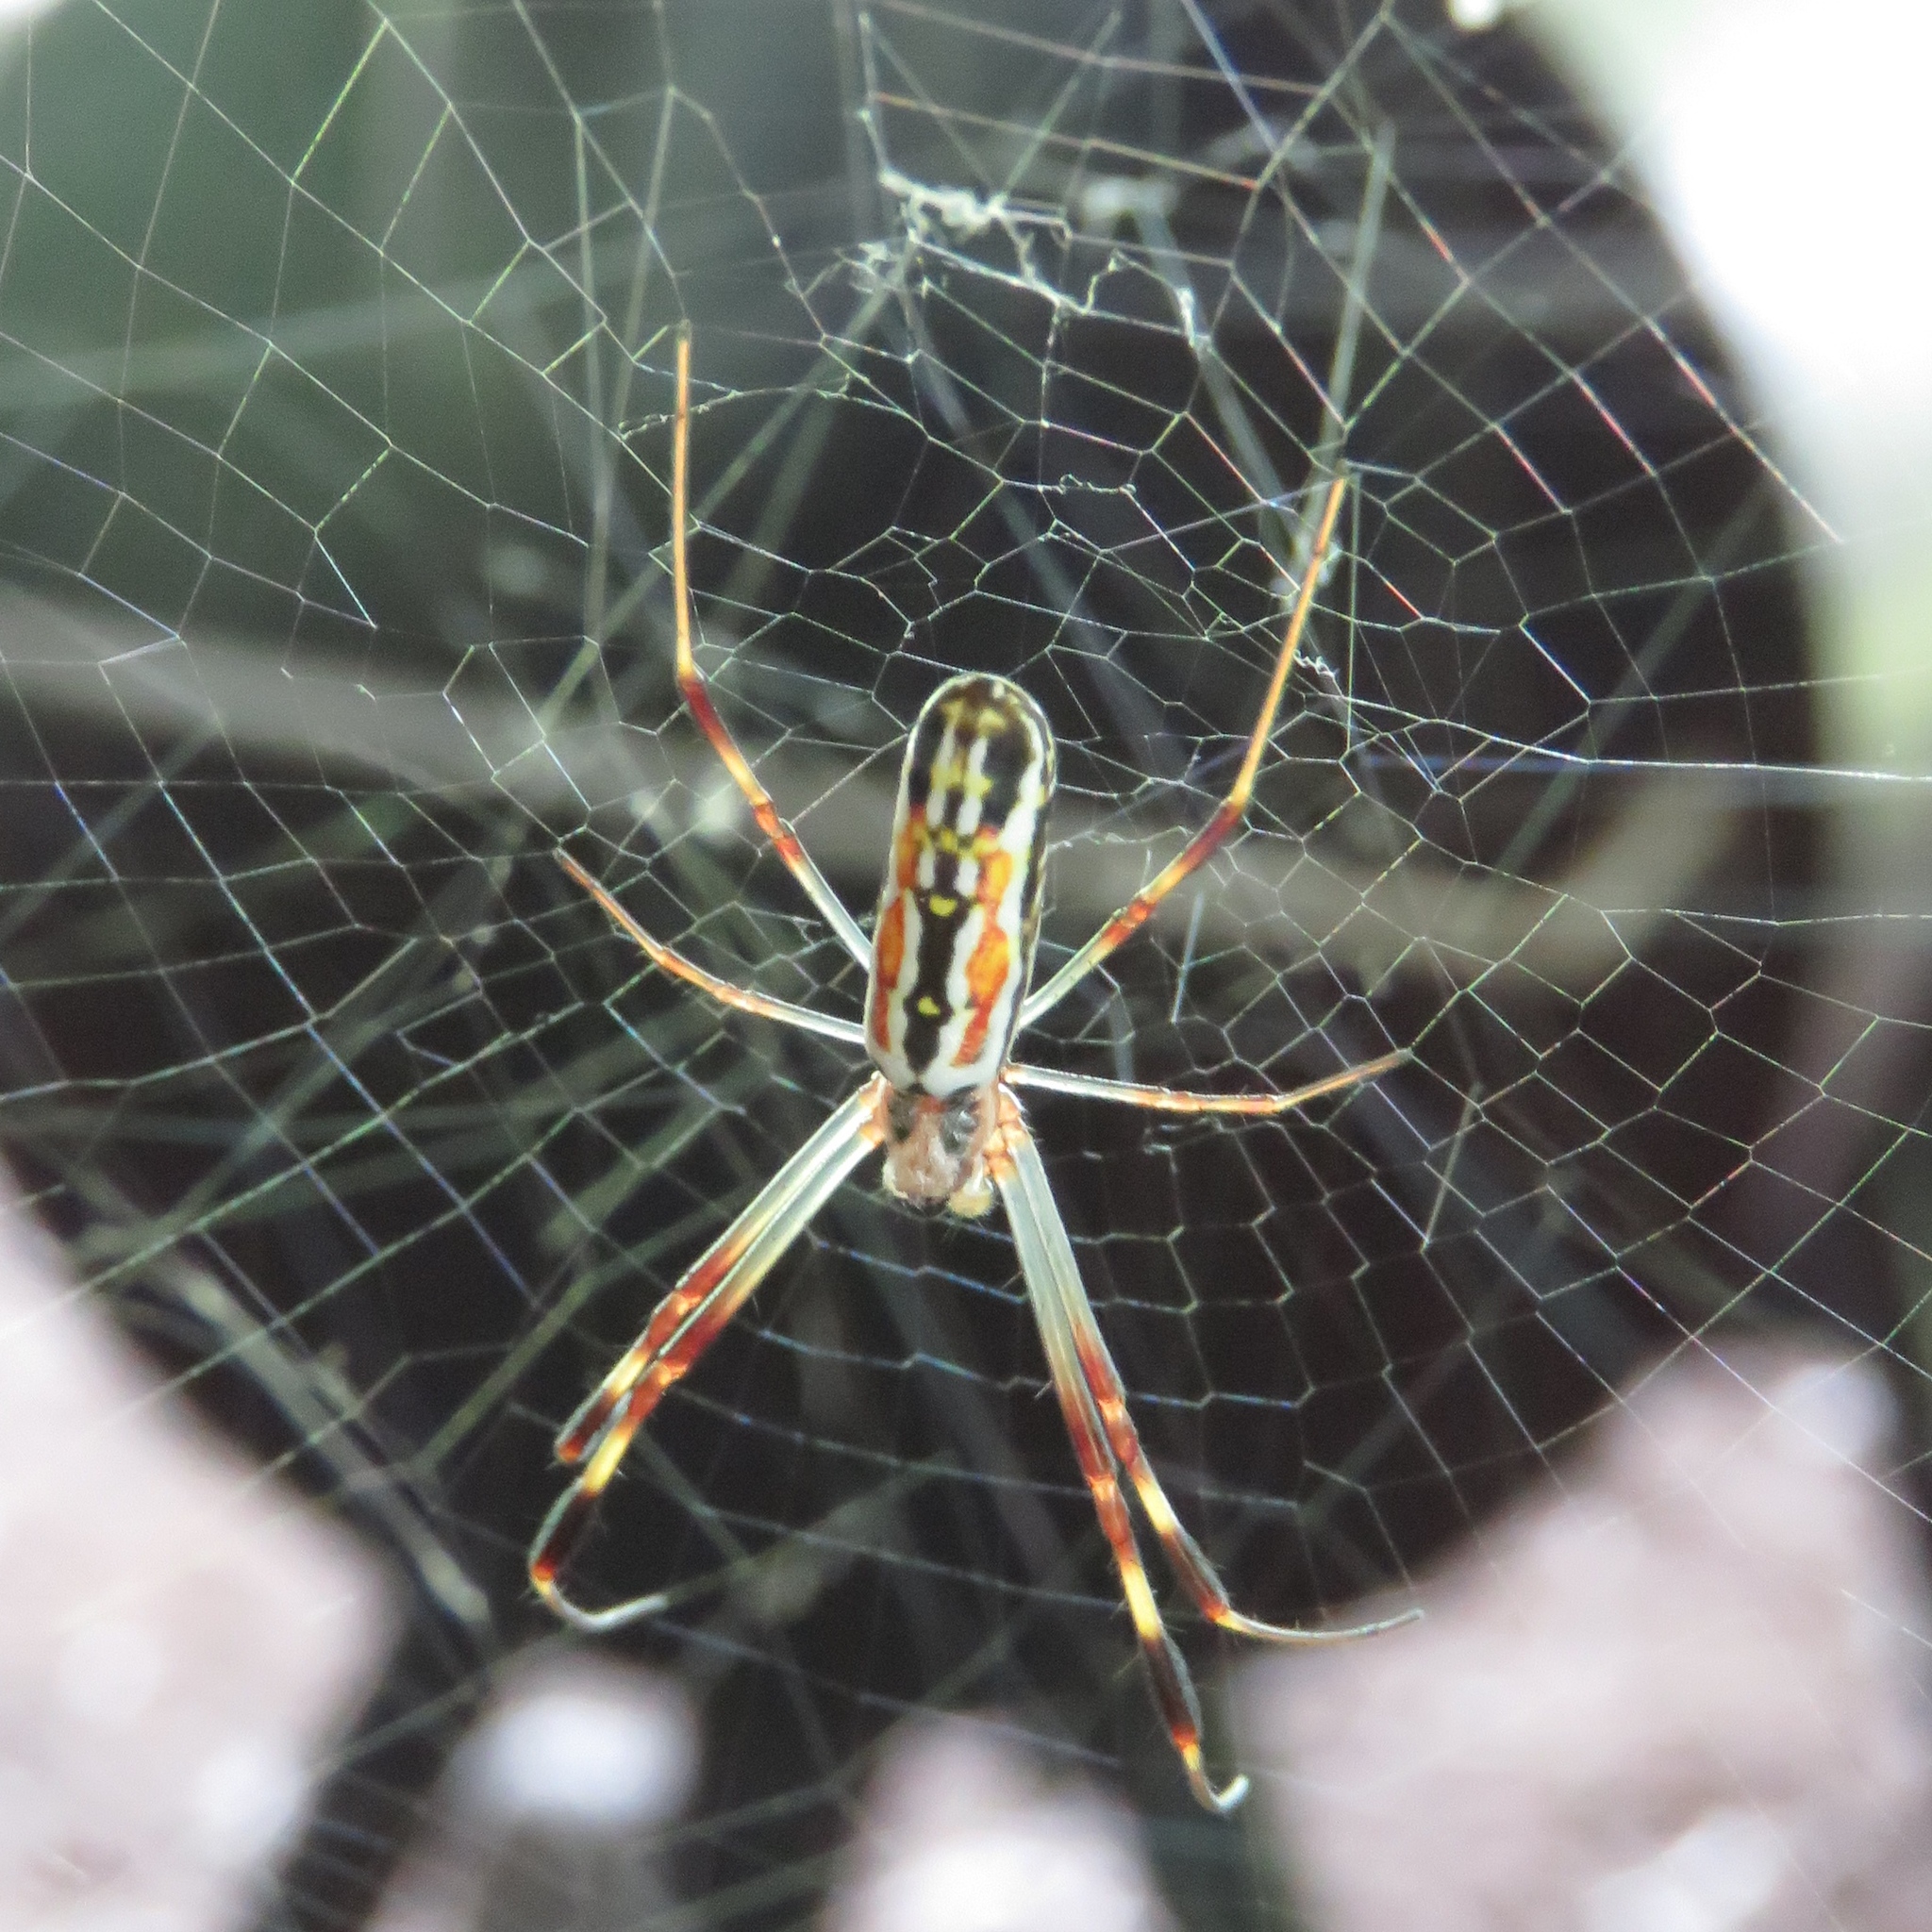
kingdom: Animalia
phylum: Arthropoda
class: Arachnida
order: Araneae
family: Araneidae
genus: Trichonephila
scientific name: Trichonephila clavipes
